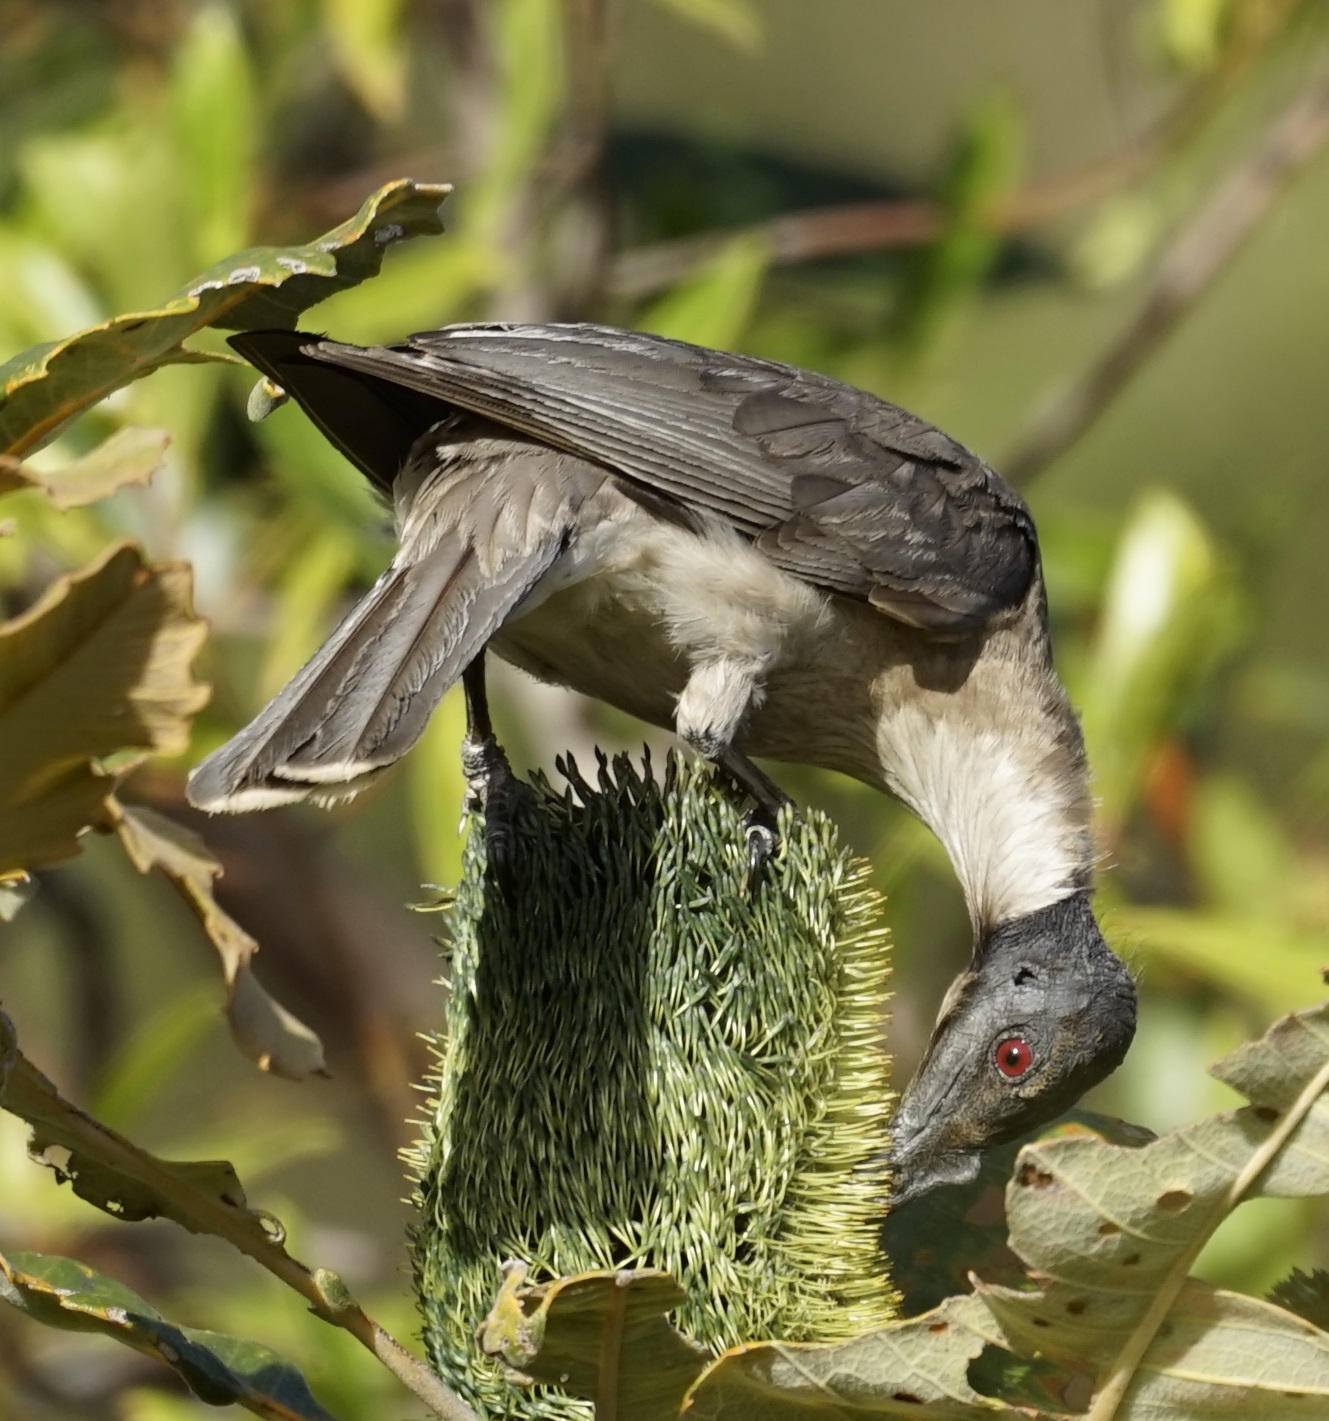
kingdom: Animalia
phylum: Chordata
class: Aves
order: Passeriformes
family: Meliphagidae
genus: Philemon
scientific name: Philemon corniculatus
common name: Noisy friarbird
